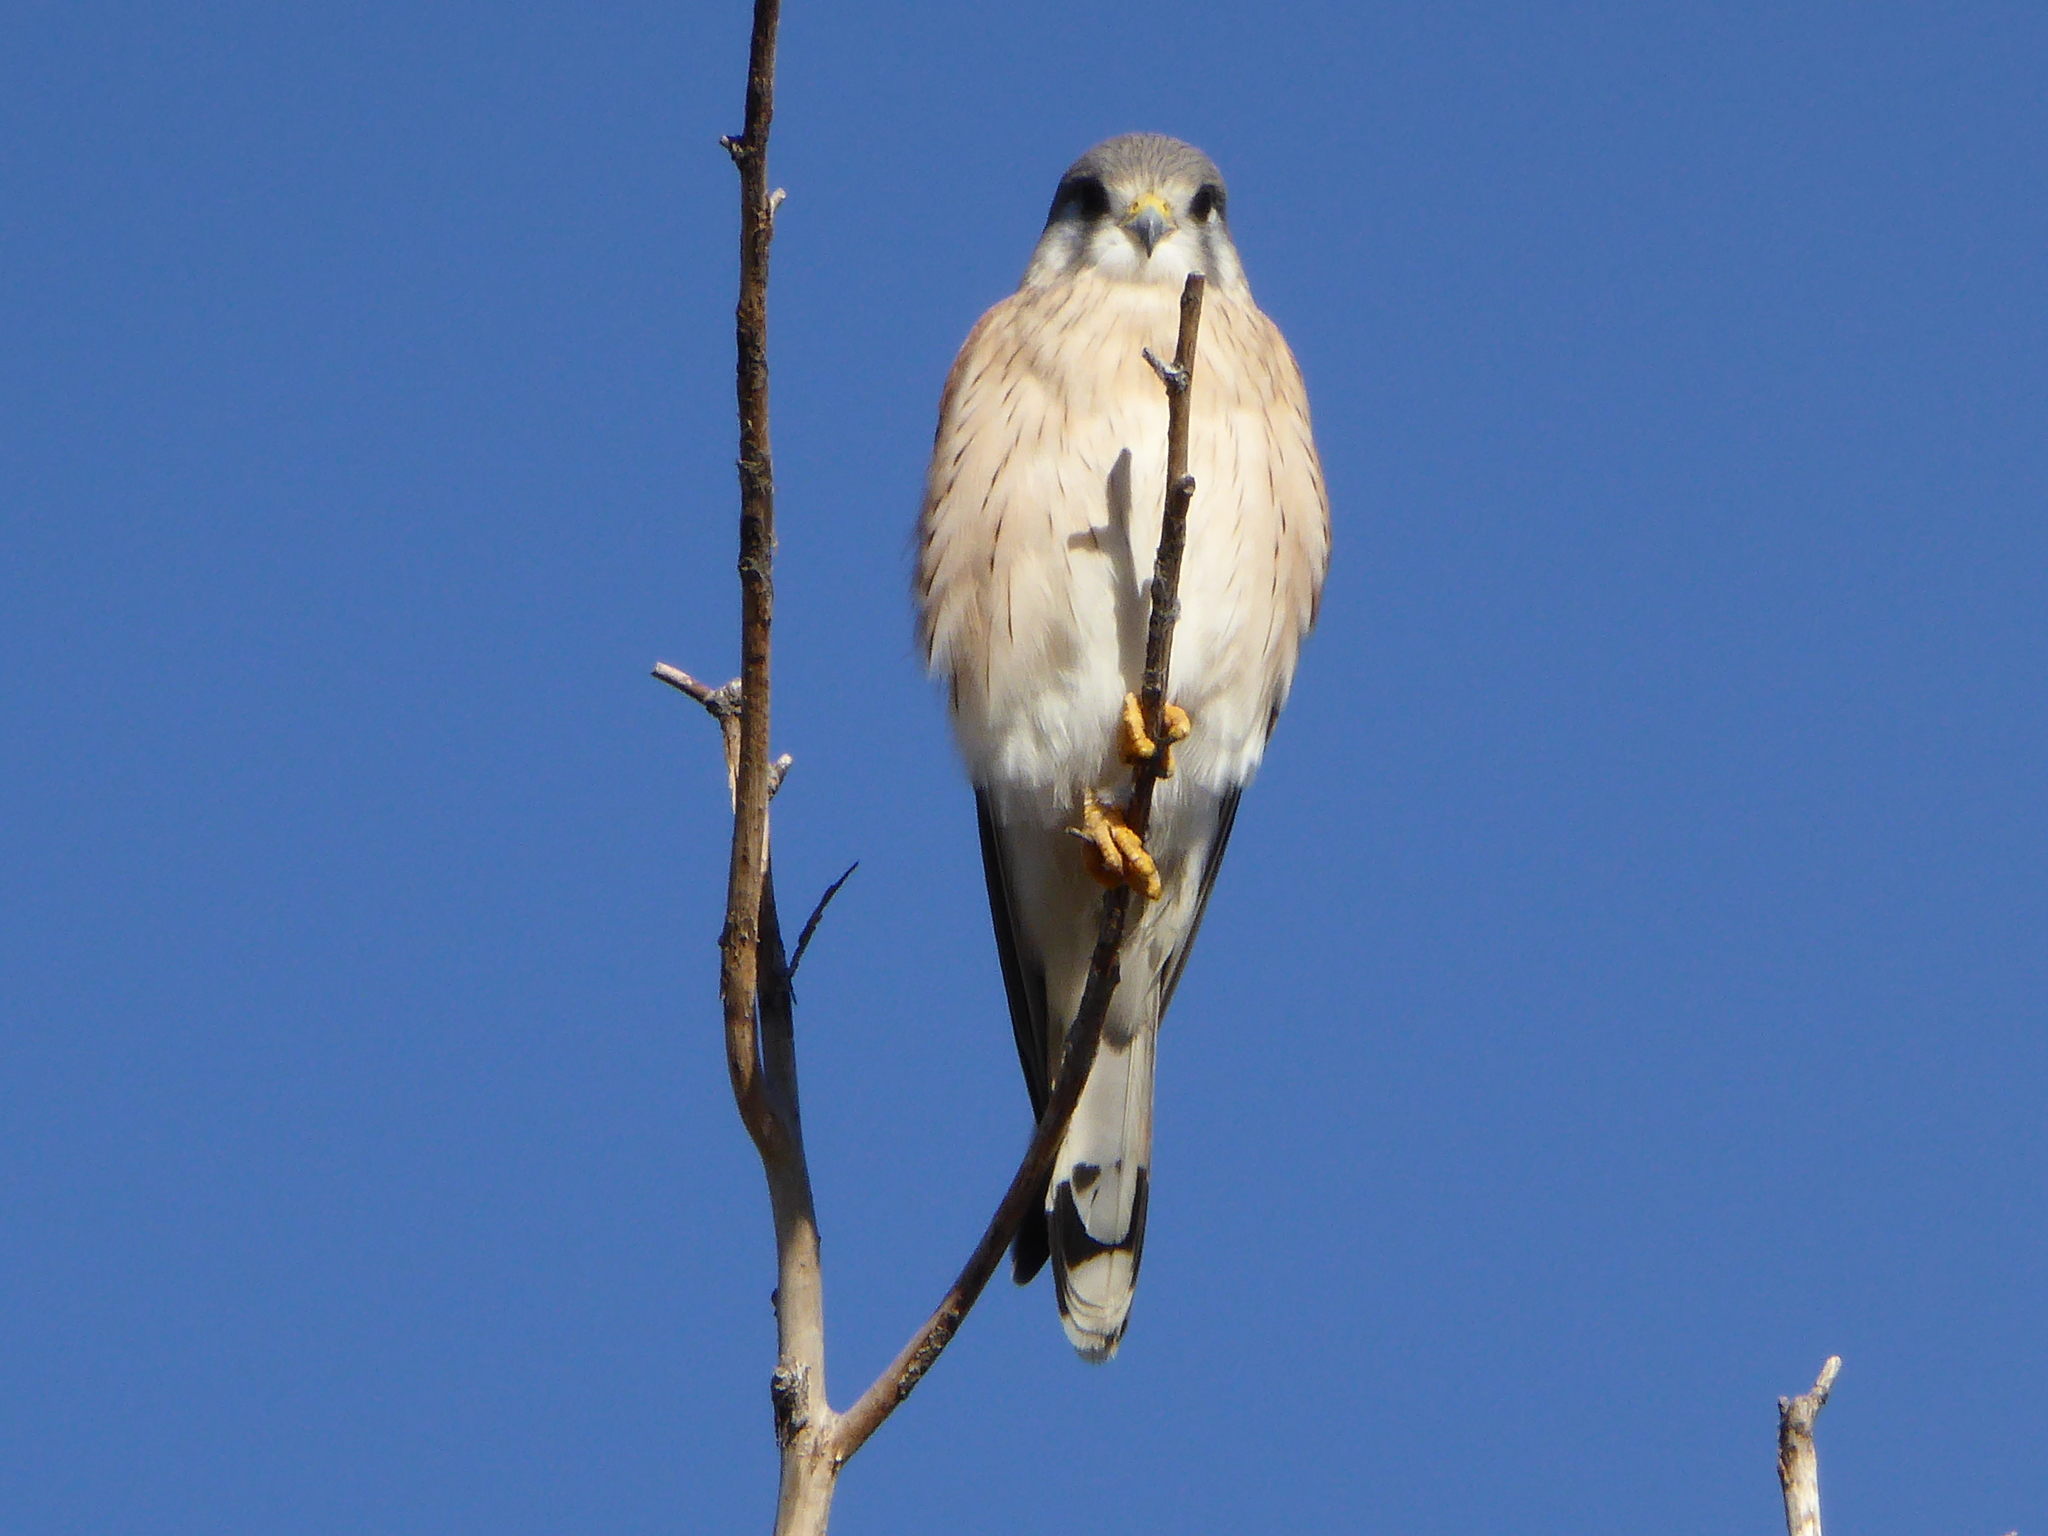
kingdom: Animalia
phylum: Chordata
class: Aves
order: Falconiformes
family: Falconidae
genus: Falco
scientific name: Falco cenchroides
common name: Nankeen kestrel
